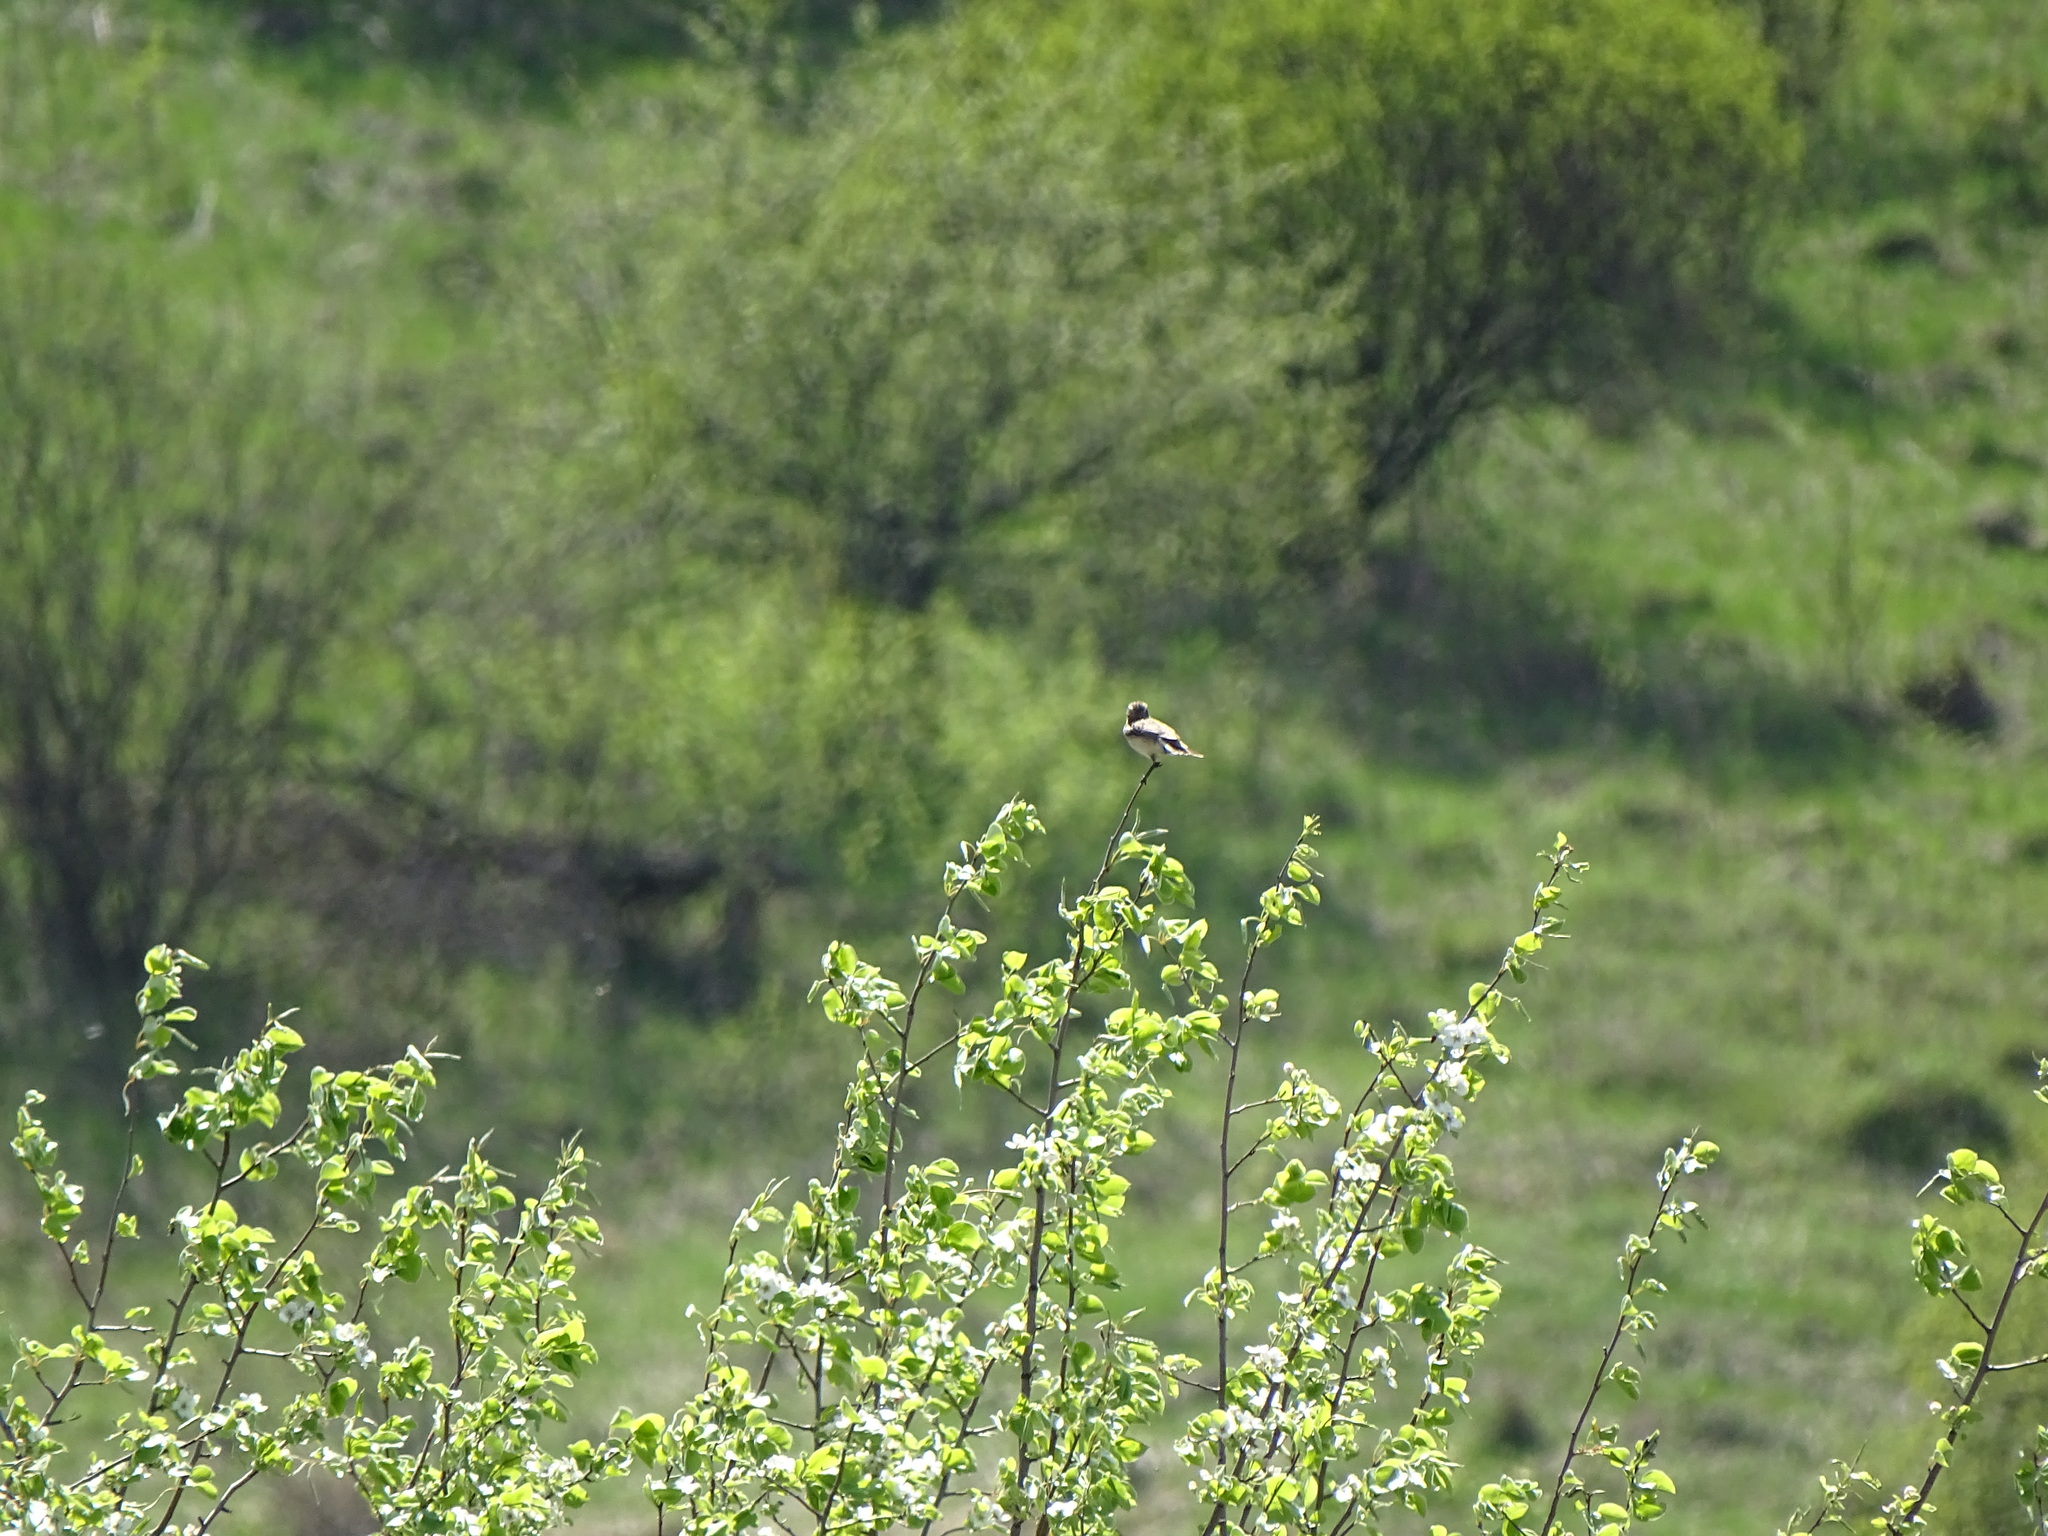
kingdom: Animalia
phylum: Chordata
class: Aves
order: Passeriformes
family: Muscicapidae
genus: Saxicola
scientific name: Saxicola rubetra
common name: Whinchat
